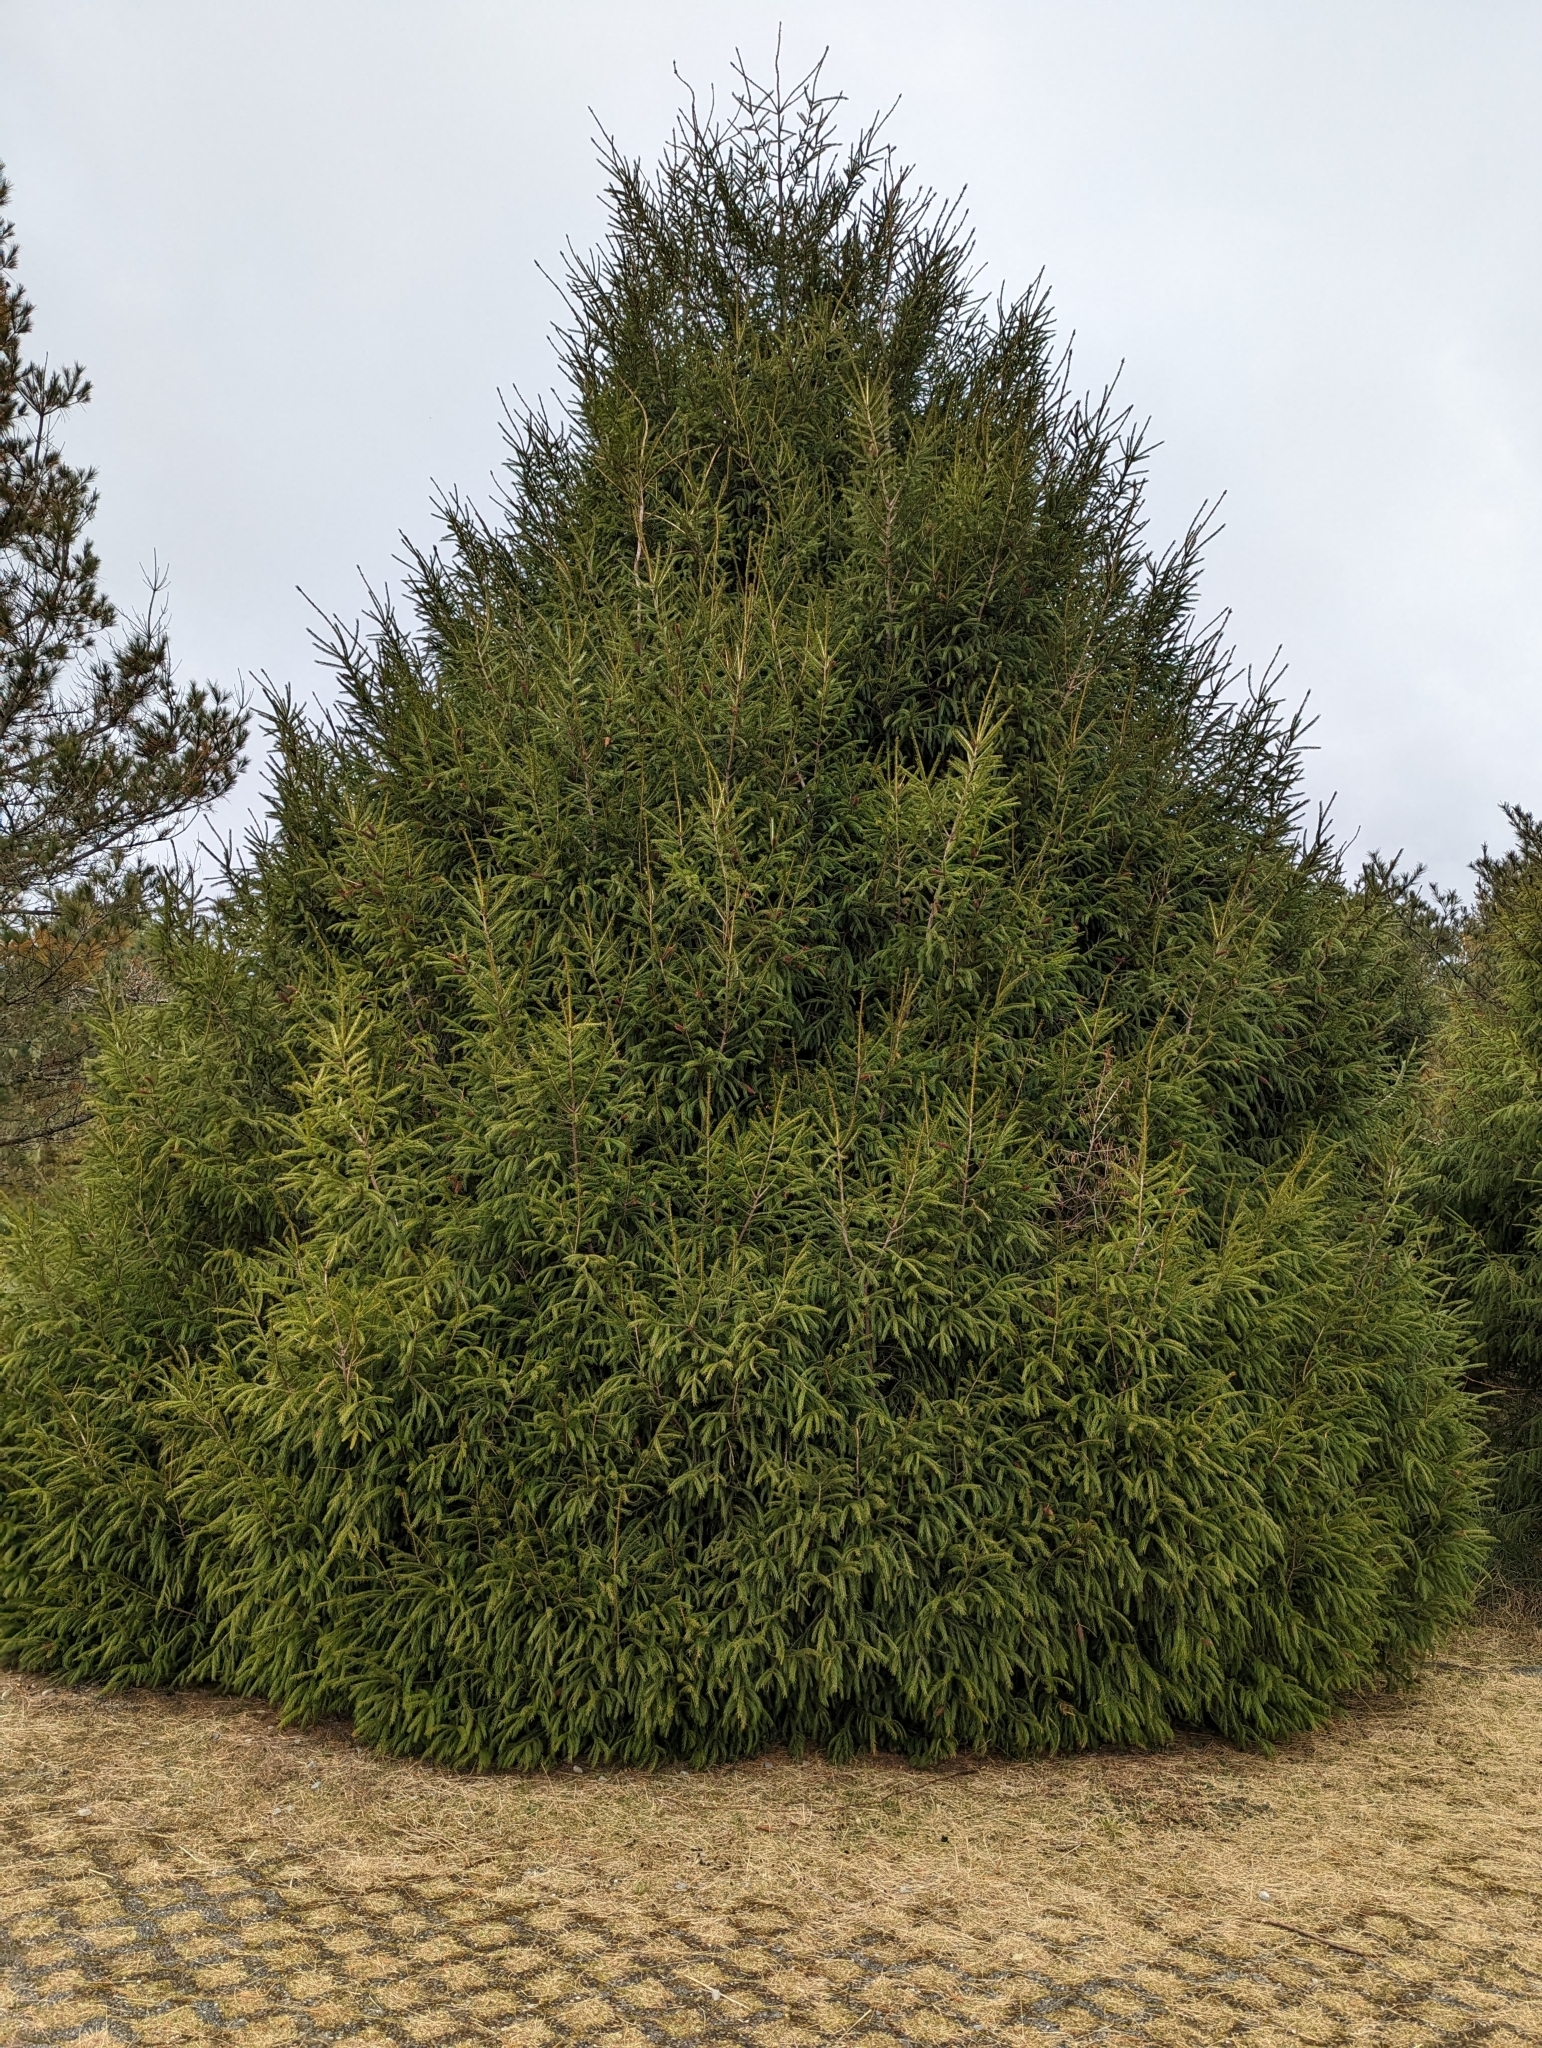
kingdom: Plantae
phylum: Tracheophyta
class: Pinopsida
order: Pinales
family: Pinaceae
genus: Picea
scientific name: Picea morrisonicola
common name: Mount morrison spruce
